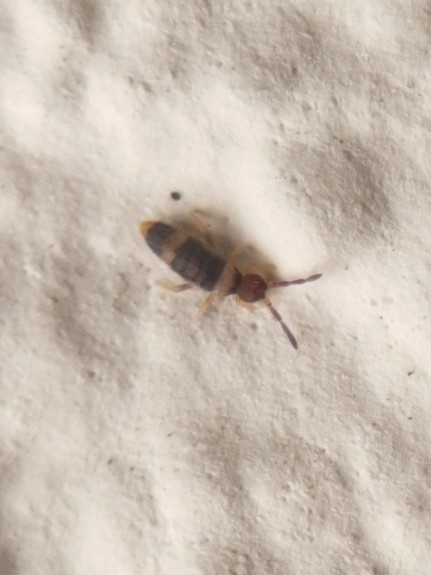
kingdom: Animalia
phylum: Arthropoda
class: Collembola
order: Entomobryomorpha
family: Entomobryidae
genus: Entomobrya
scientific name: Entomobrya albocincta
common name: Springtail
